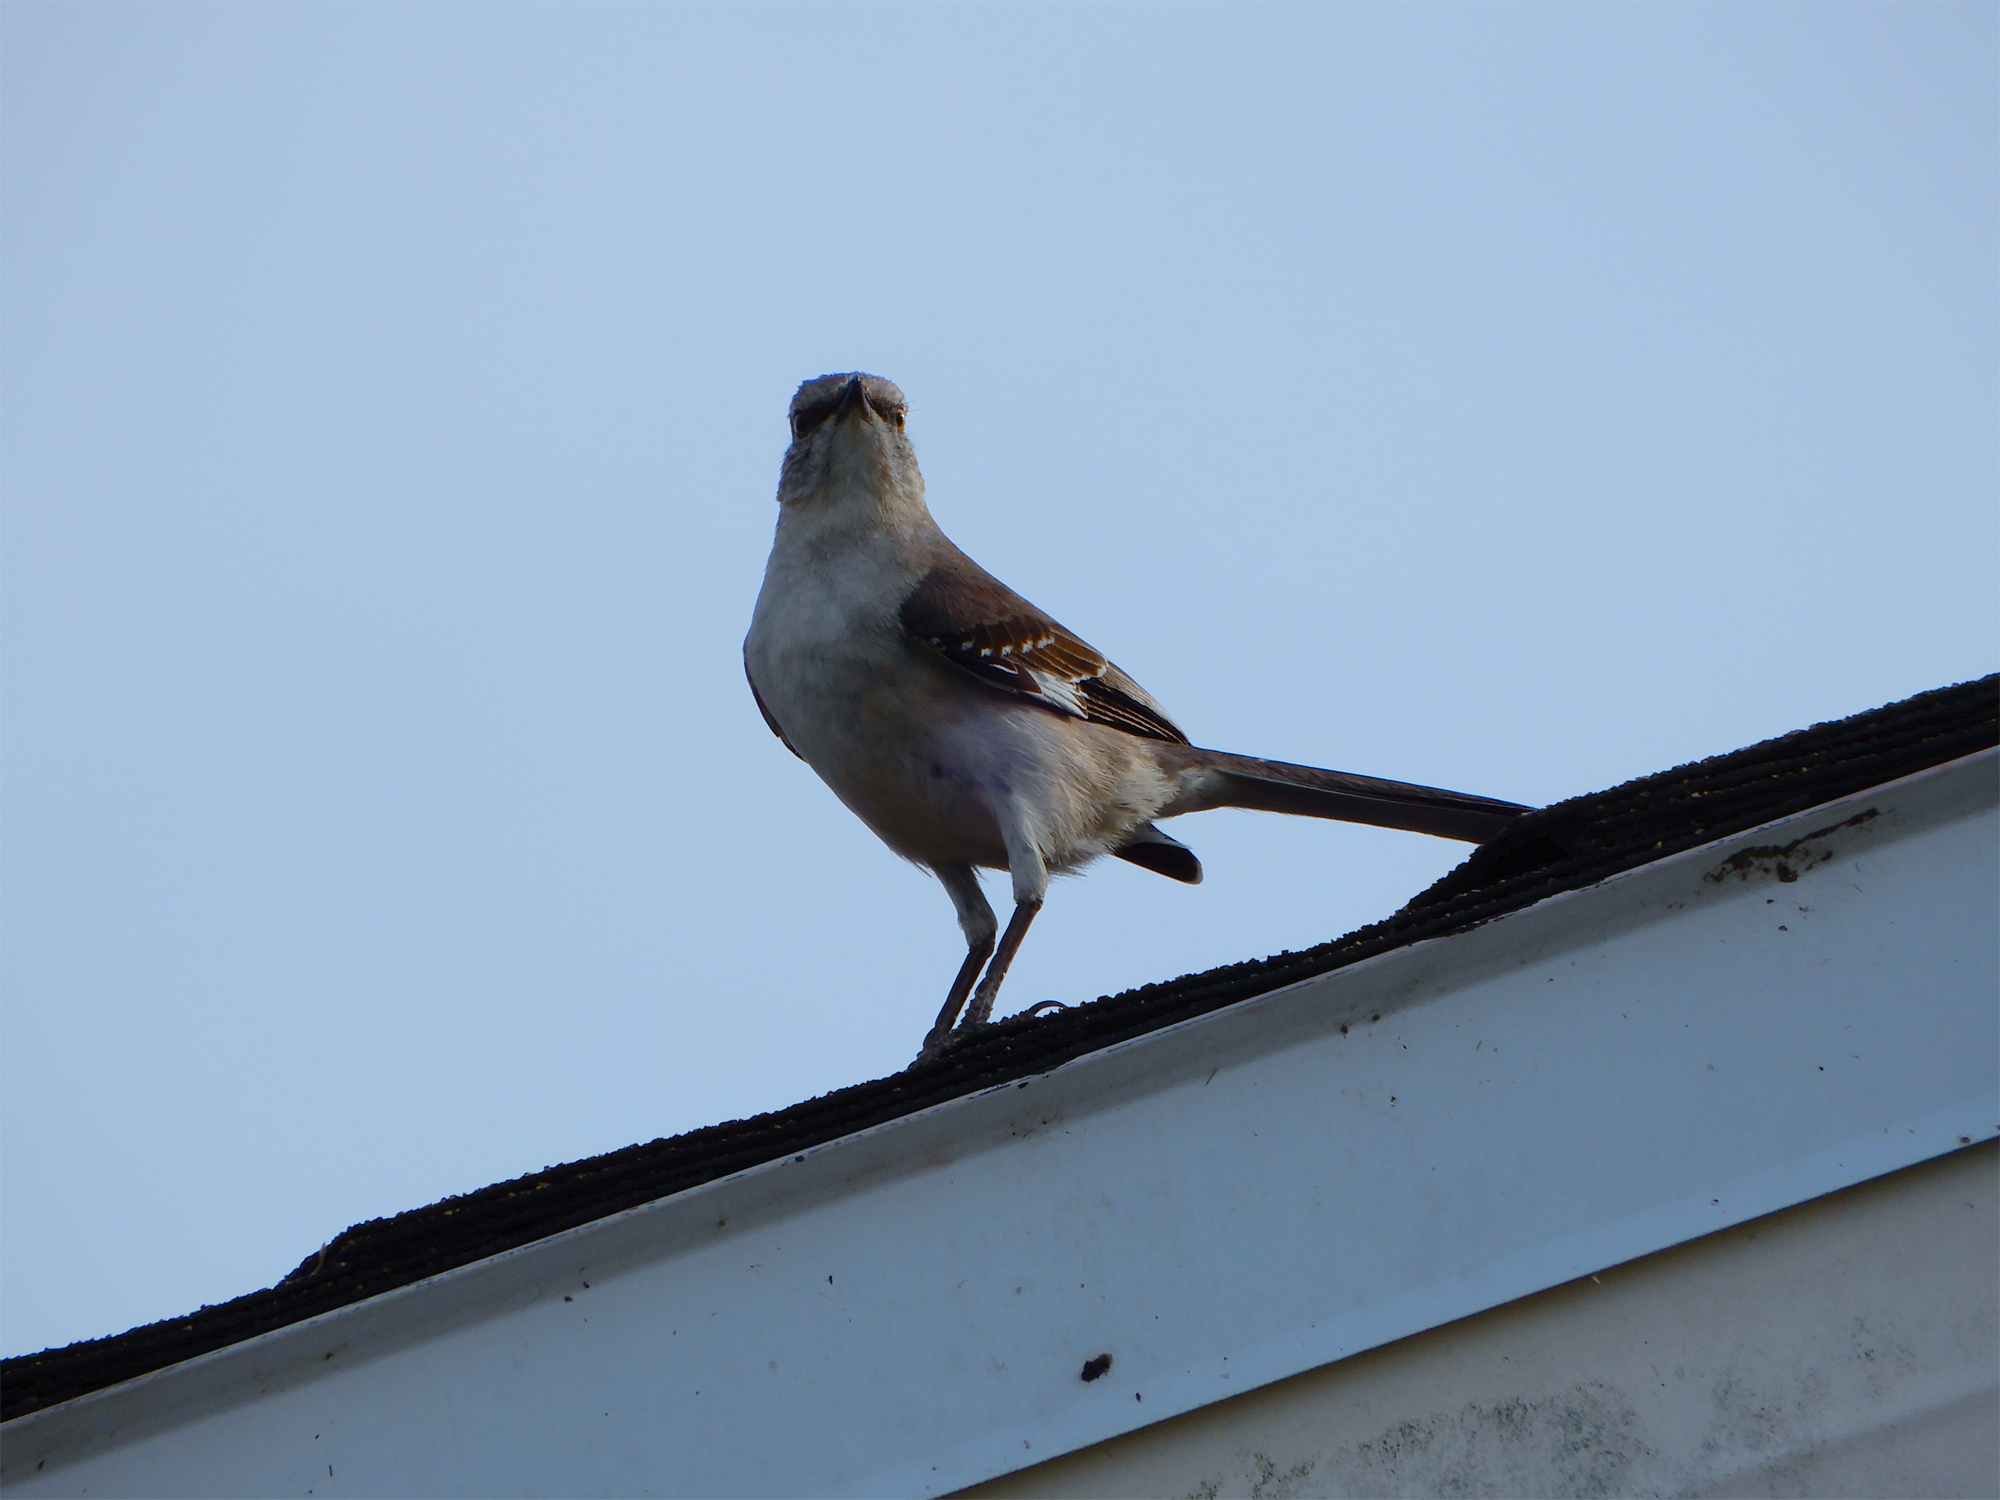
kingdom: Animalia
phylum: Chordata
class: Aves
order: Passeriformes
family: Mimidae
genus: Mimus
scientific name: Mimus polyglottos
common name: Northern mockingbird
